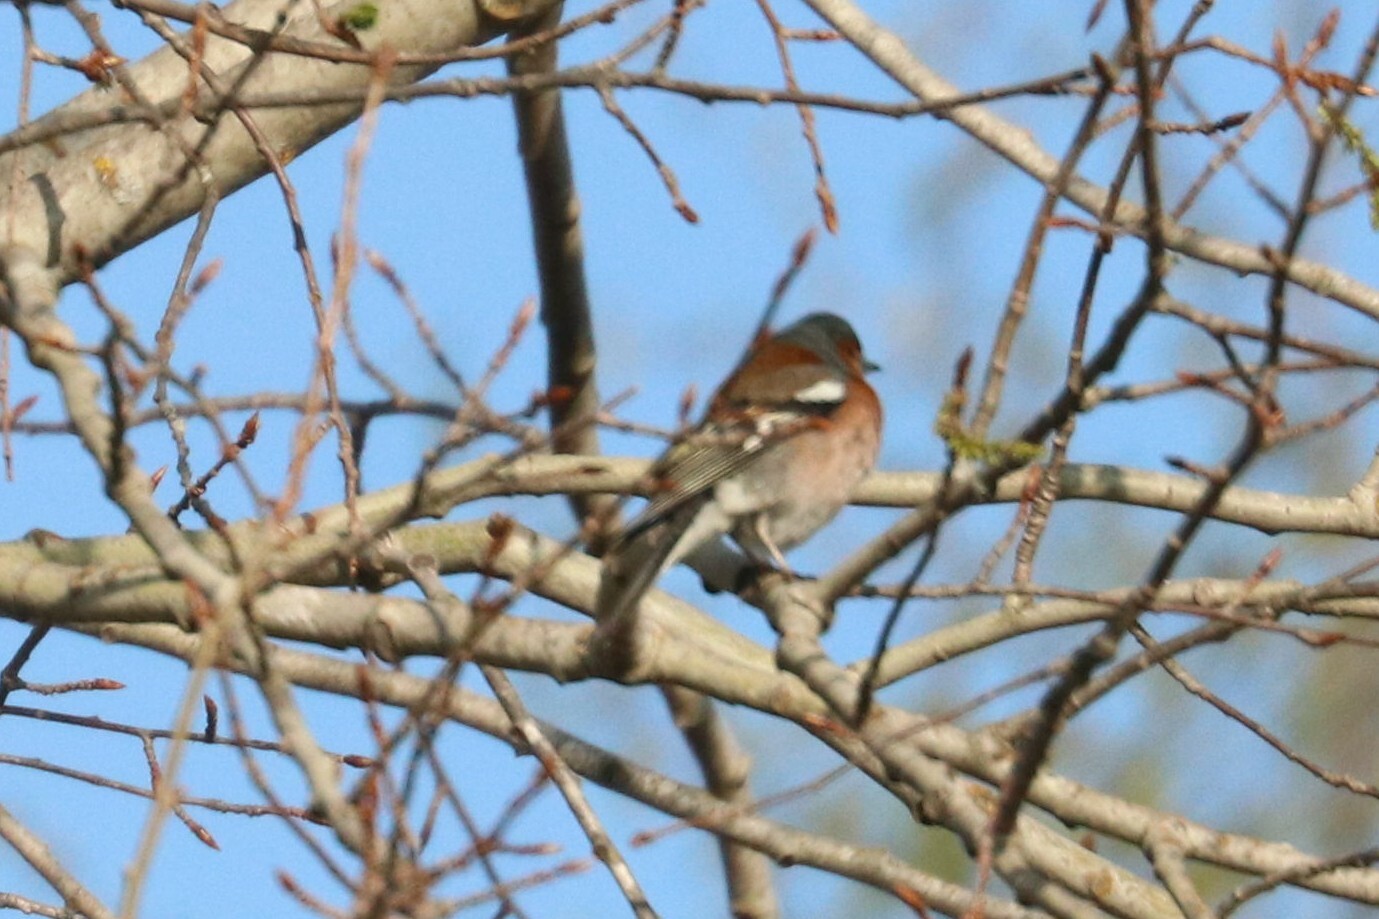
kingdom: Animalia
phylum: Chordata
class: Aves
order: Passeriformes
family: Fringillidae
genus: Fringilla
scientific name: Fringilla coelebs
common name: Common chaffinch
